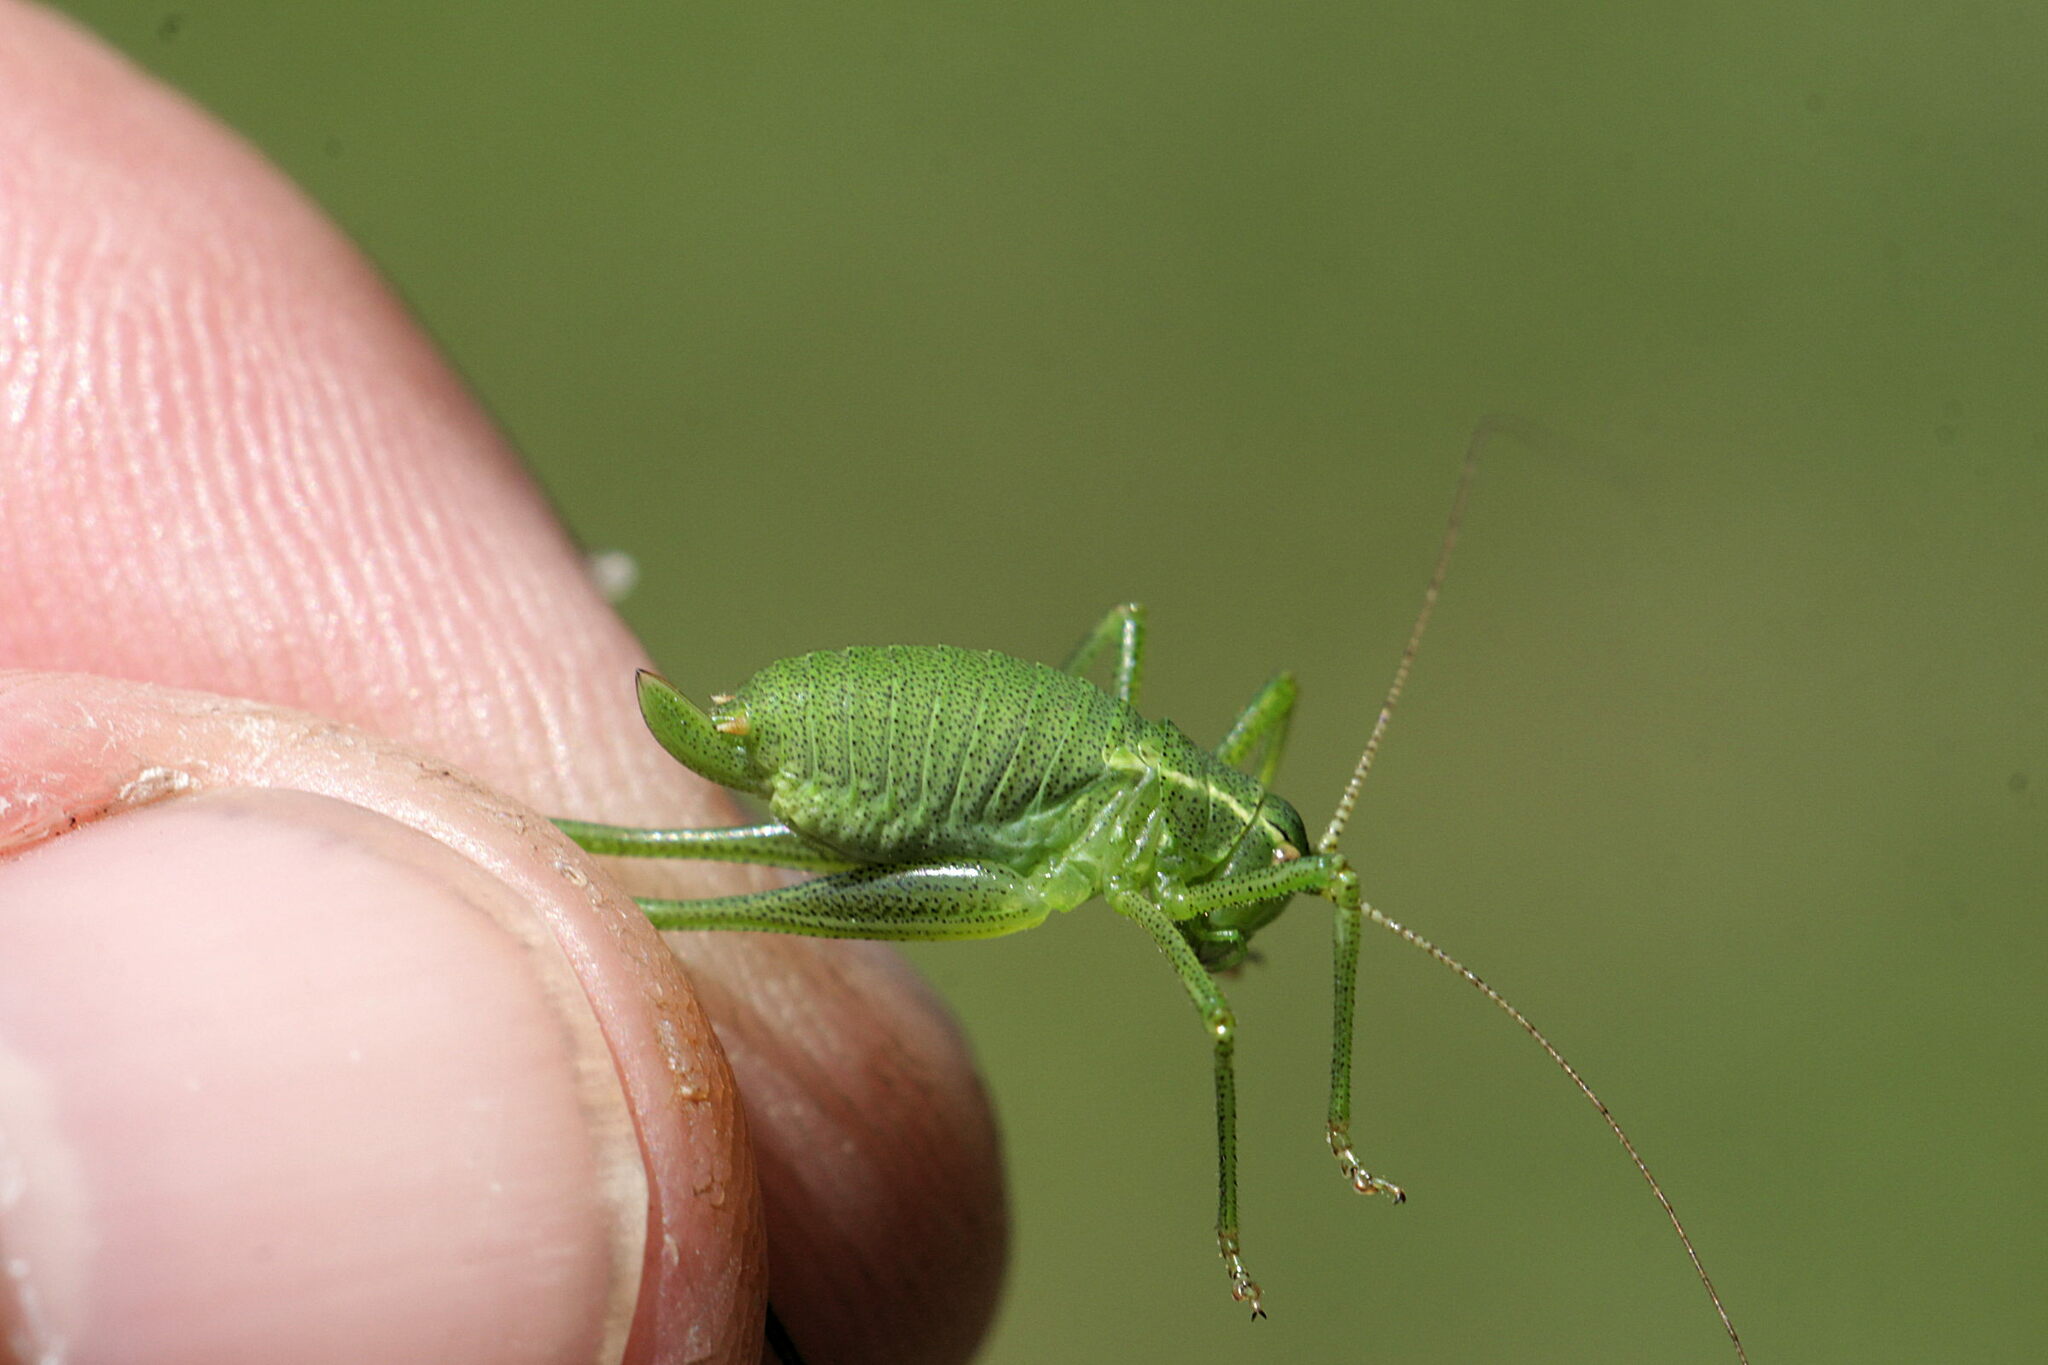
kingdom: Animalia
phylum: Arthropoda
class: Insecta
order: Orthoptera
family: Tettigoniidae
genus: Leptophyes
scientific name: Leptophyes punctatissima
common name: Speckled bush-cricket
